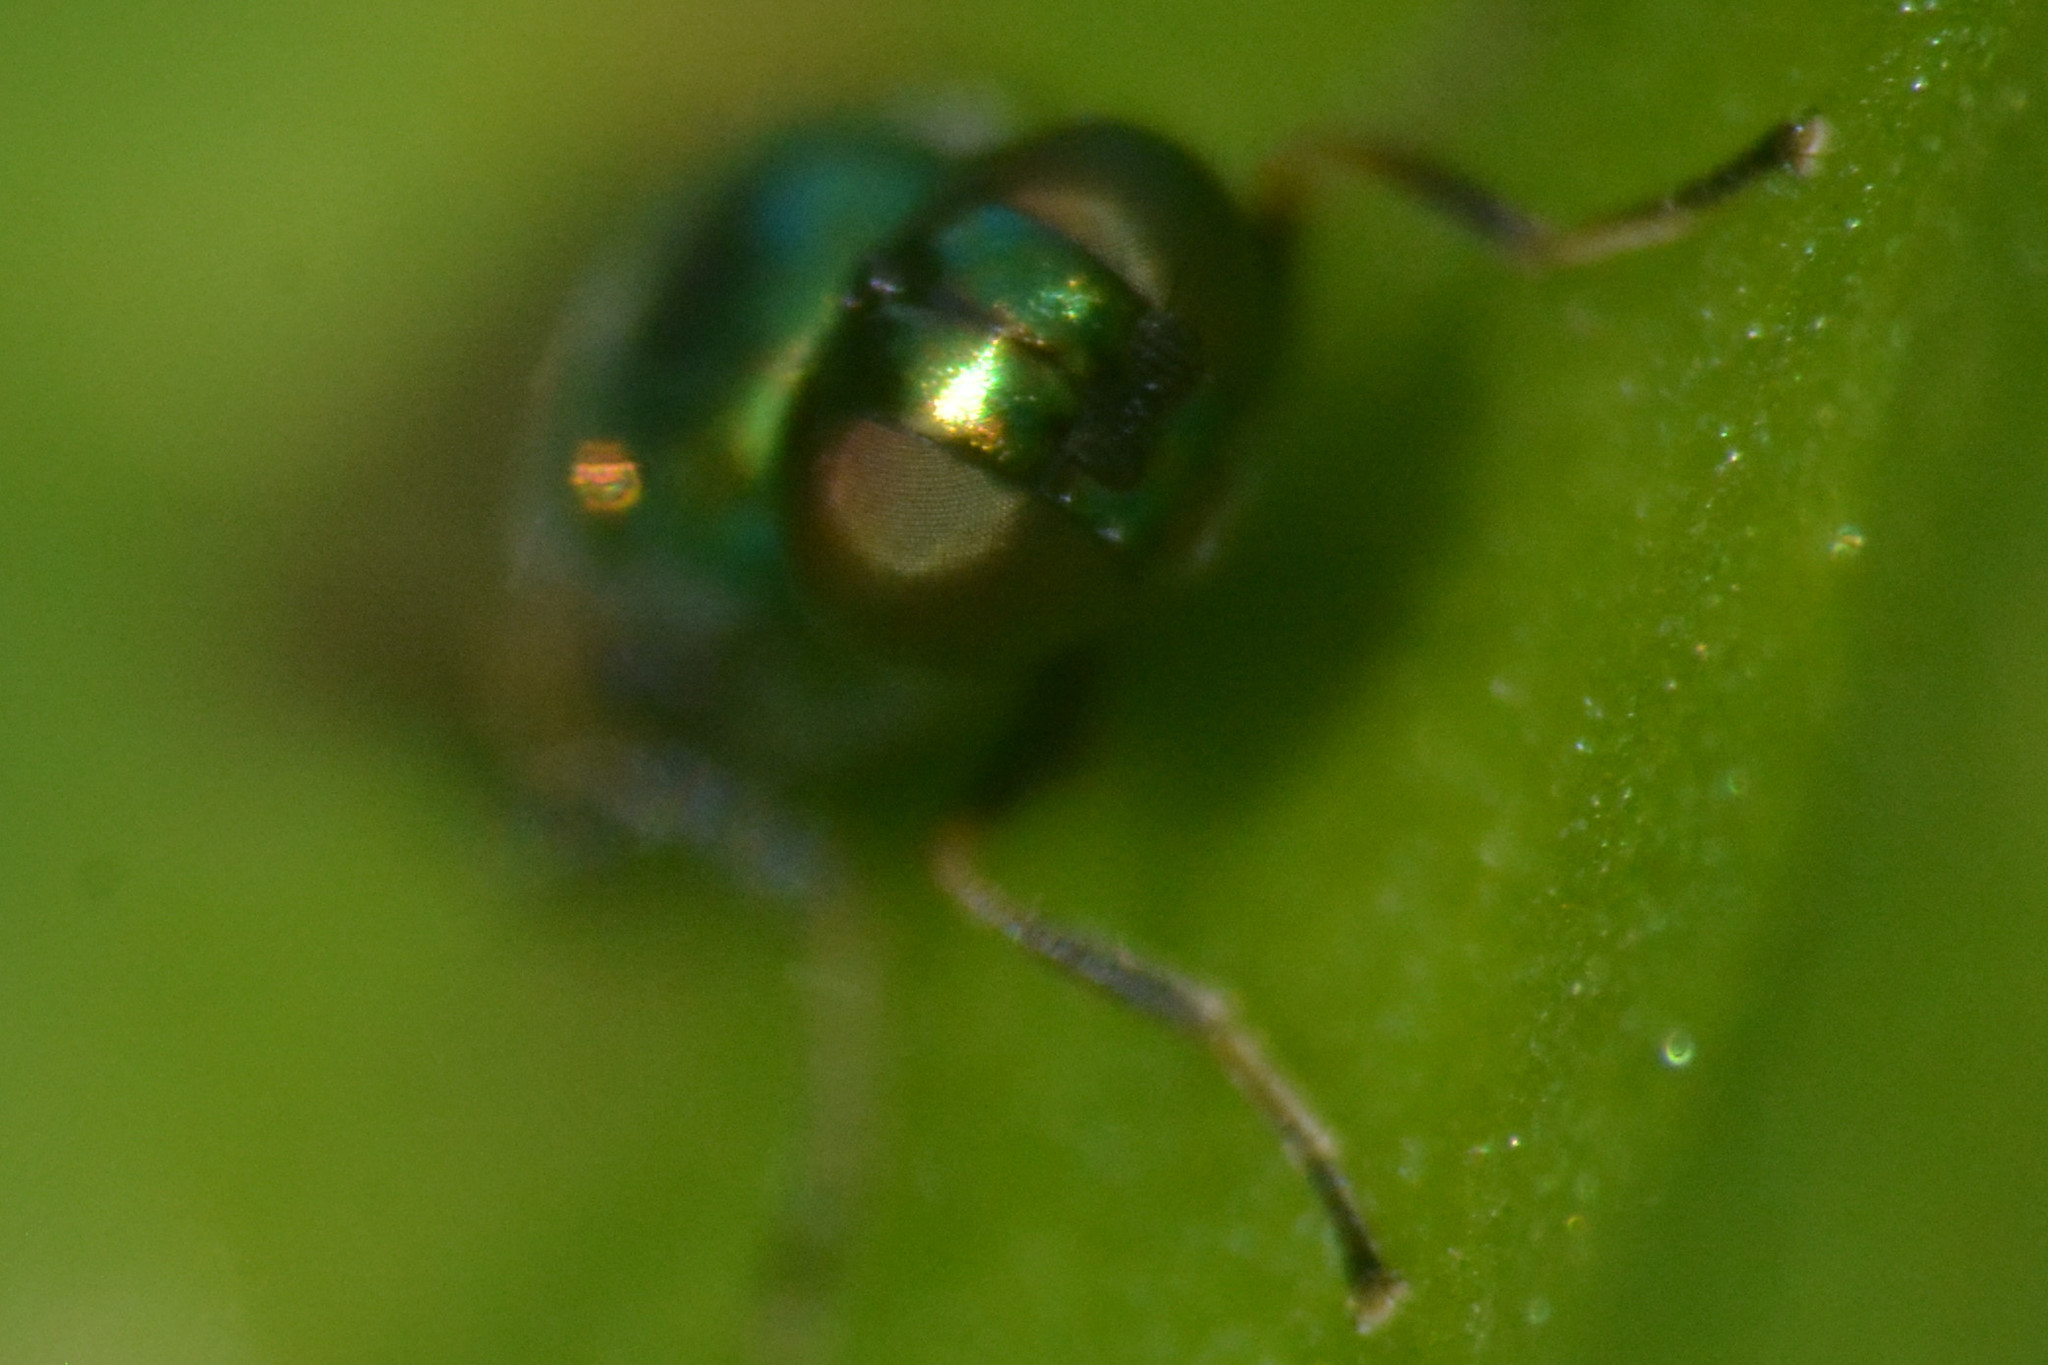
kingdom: Animalia
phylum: Arthropoda
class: Insecta
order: Diptera
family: Stratiomyidae
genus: Microchrysa
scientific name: Microchrysa polita
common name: Black-horned gem
